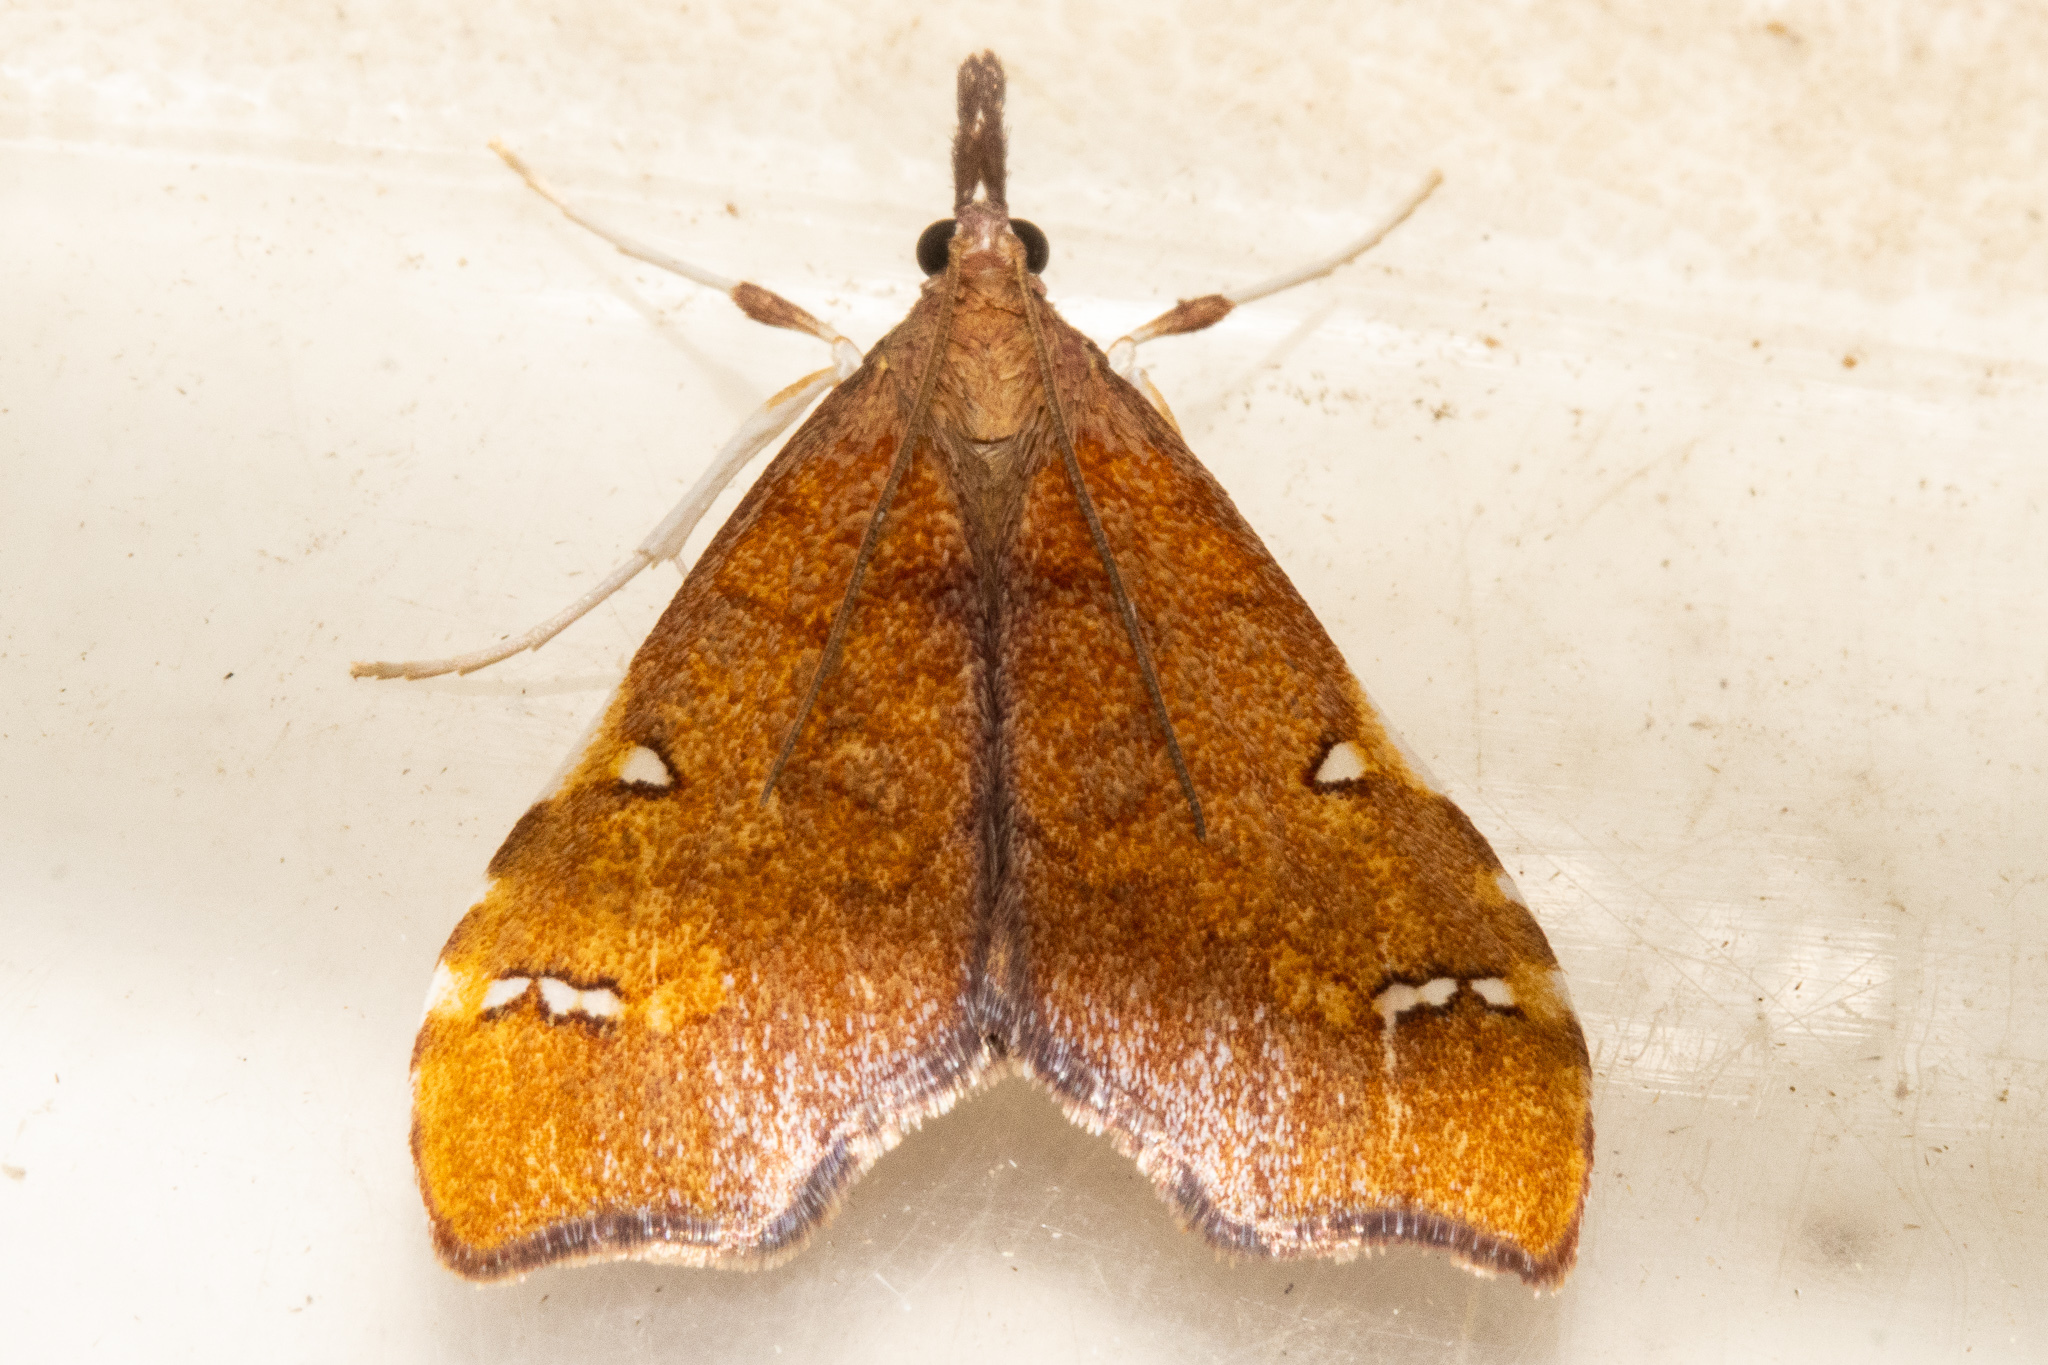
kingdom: Animalia
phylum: Arthropoda
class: Insecta
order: Lepidoptera
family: Crambidae
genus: Deana
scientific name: Deana hybreasalis
